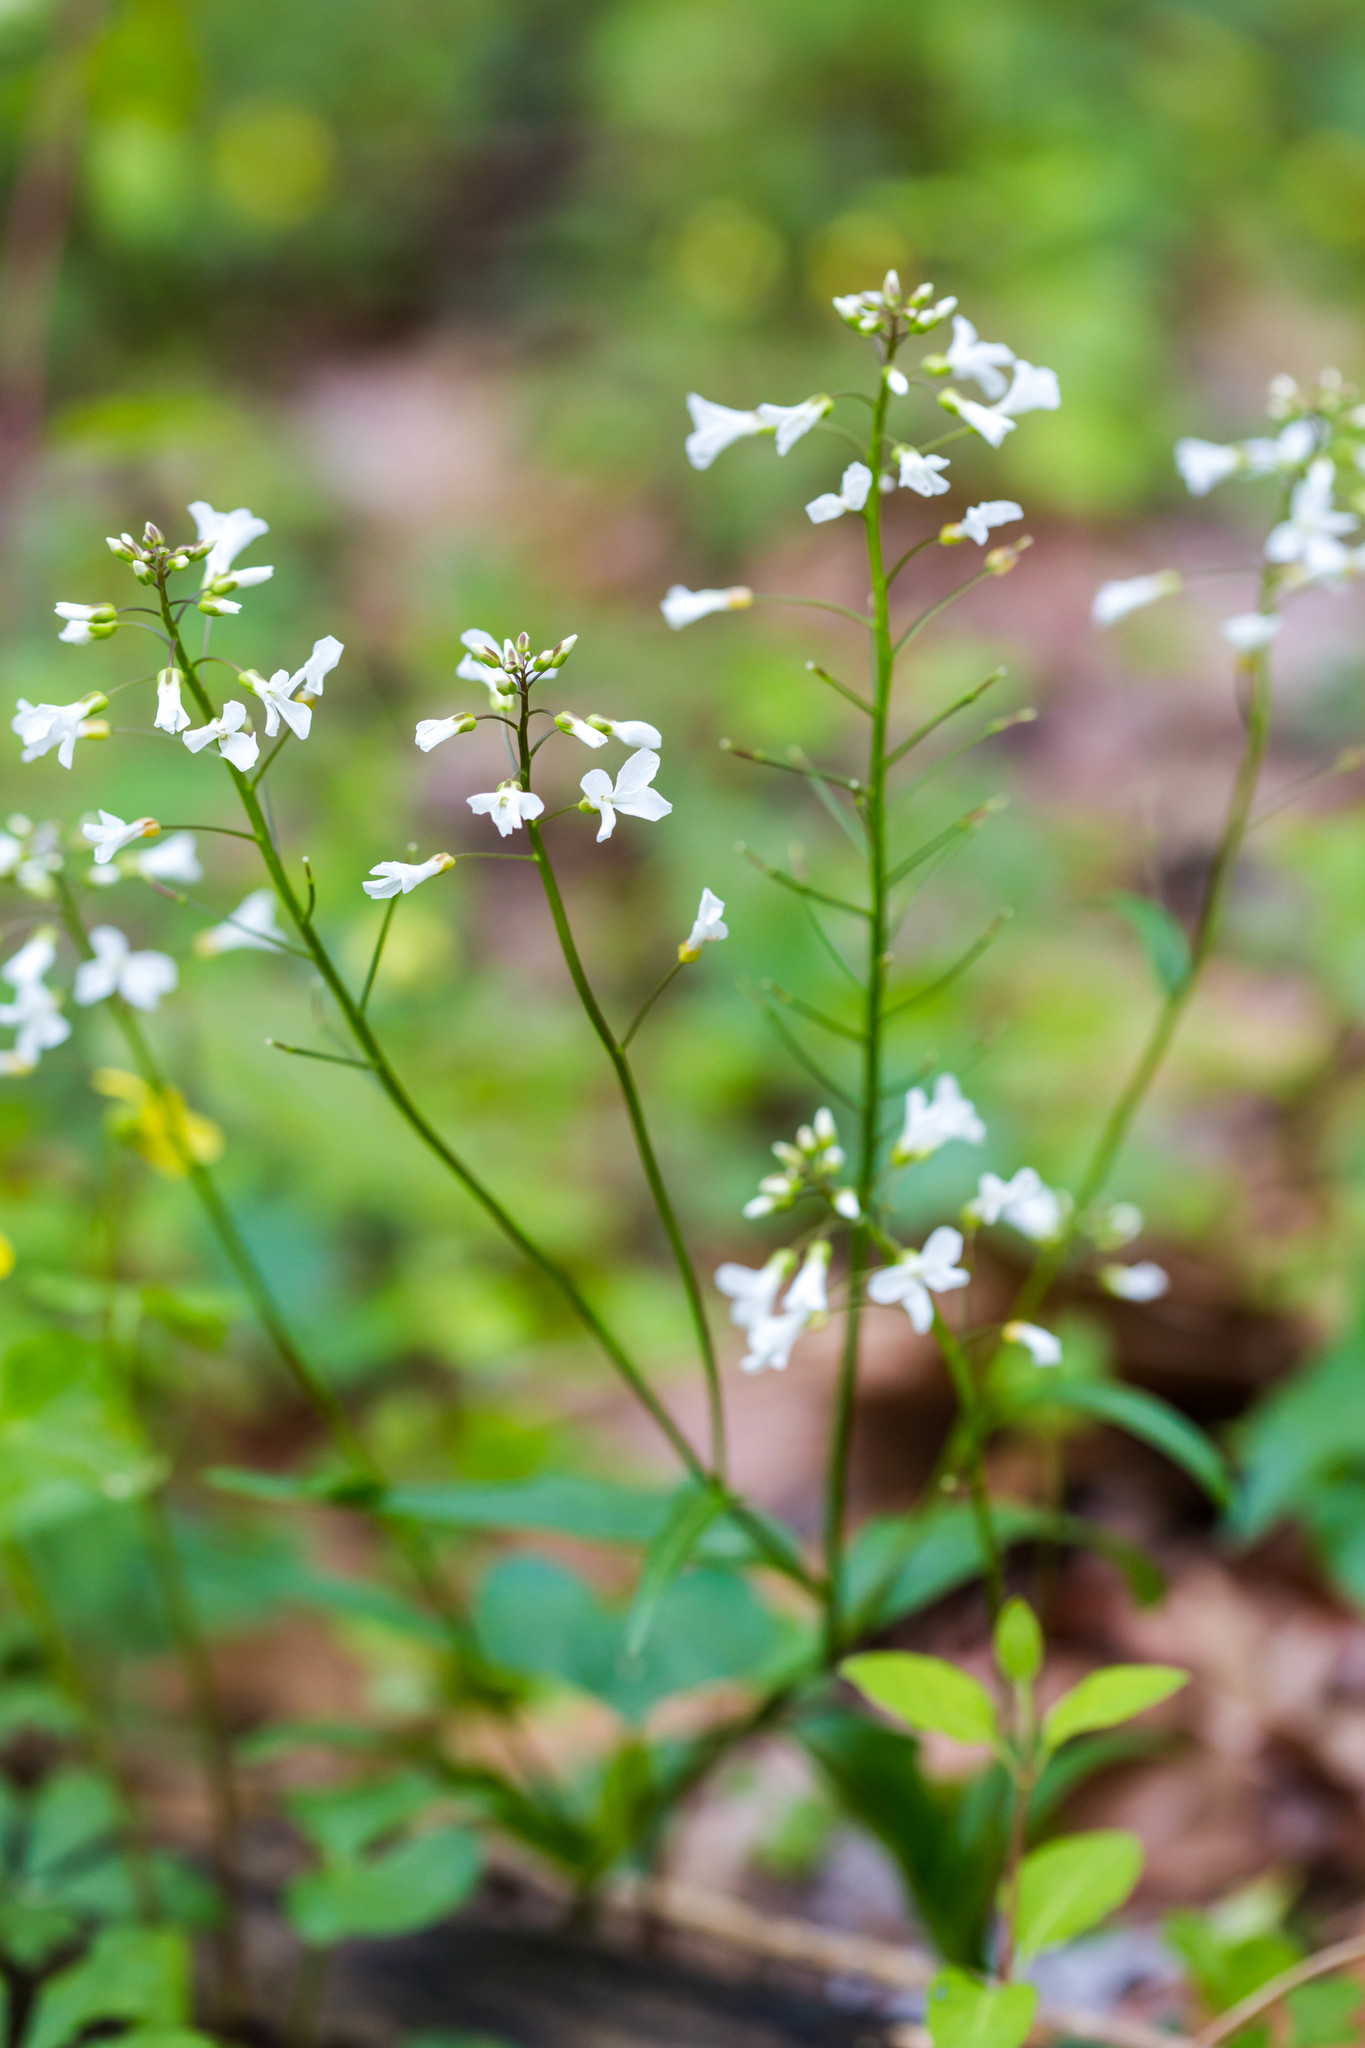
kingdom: Plantae
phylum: Tracheophyta
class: Magnoliopsida
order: Brassicales
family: Brassicaceae
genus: Cardamine
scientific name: Cardamine bulbosa
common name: Spring cress
